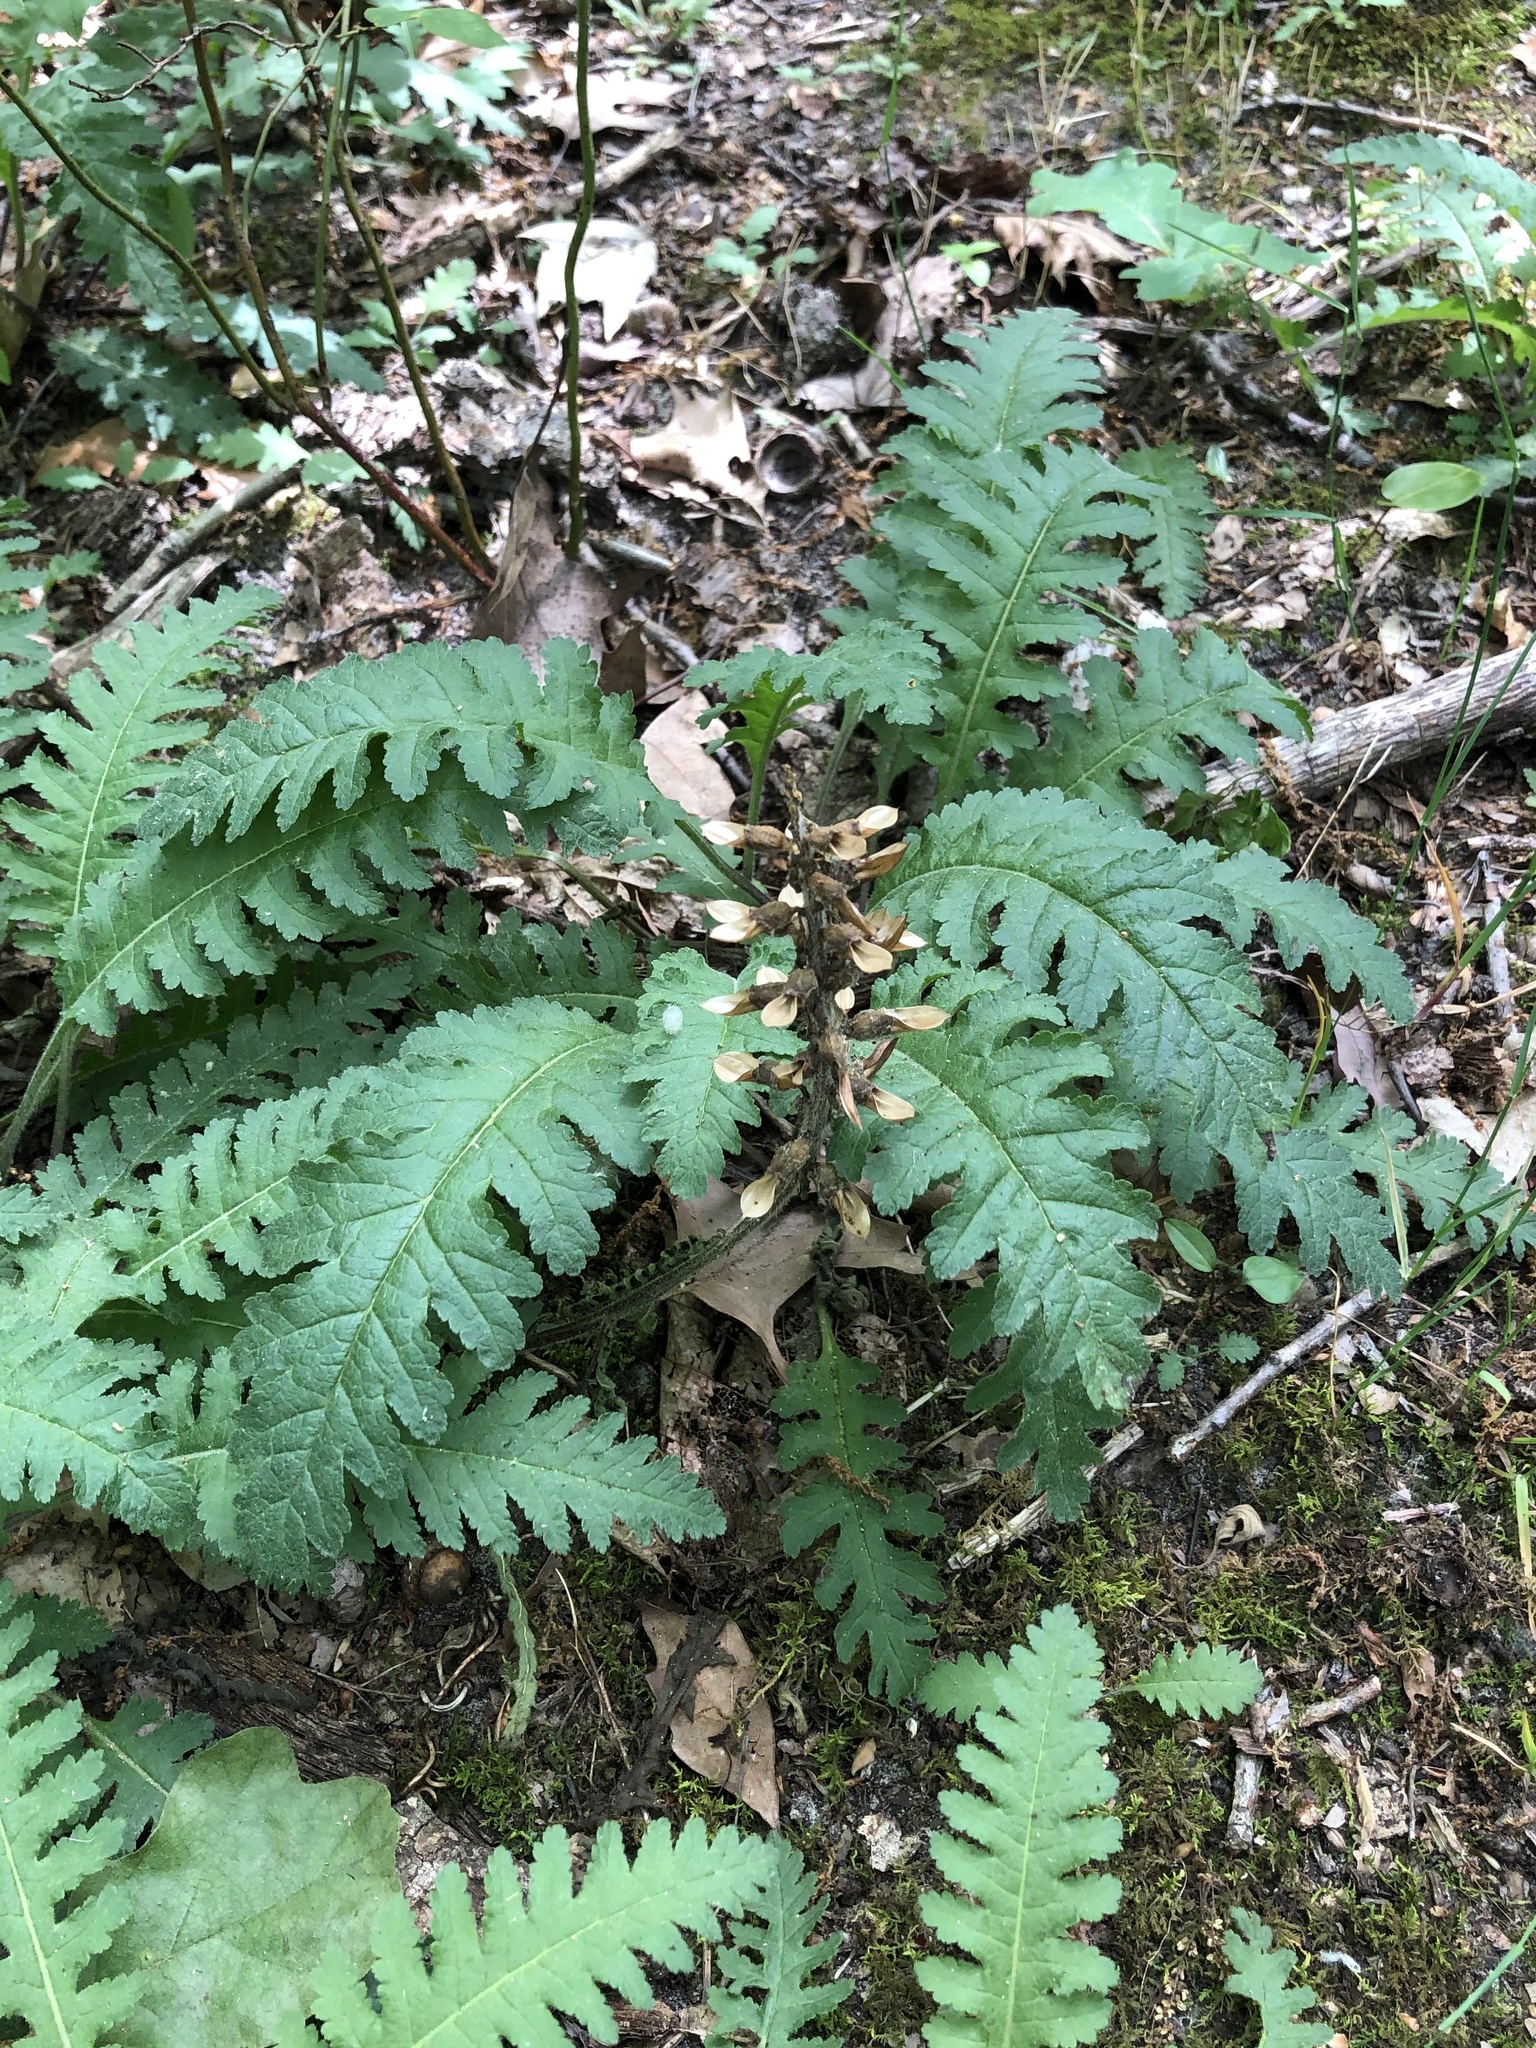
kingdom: Plantae
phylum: Tracheophyta
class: Magnoliopsida
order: Lamiales
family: Orobanchaceae
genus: Pedicularis
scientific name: Pedicularis canadensis
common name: Early lousewort
